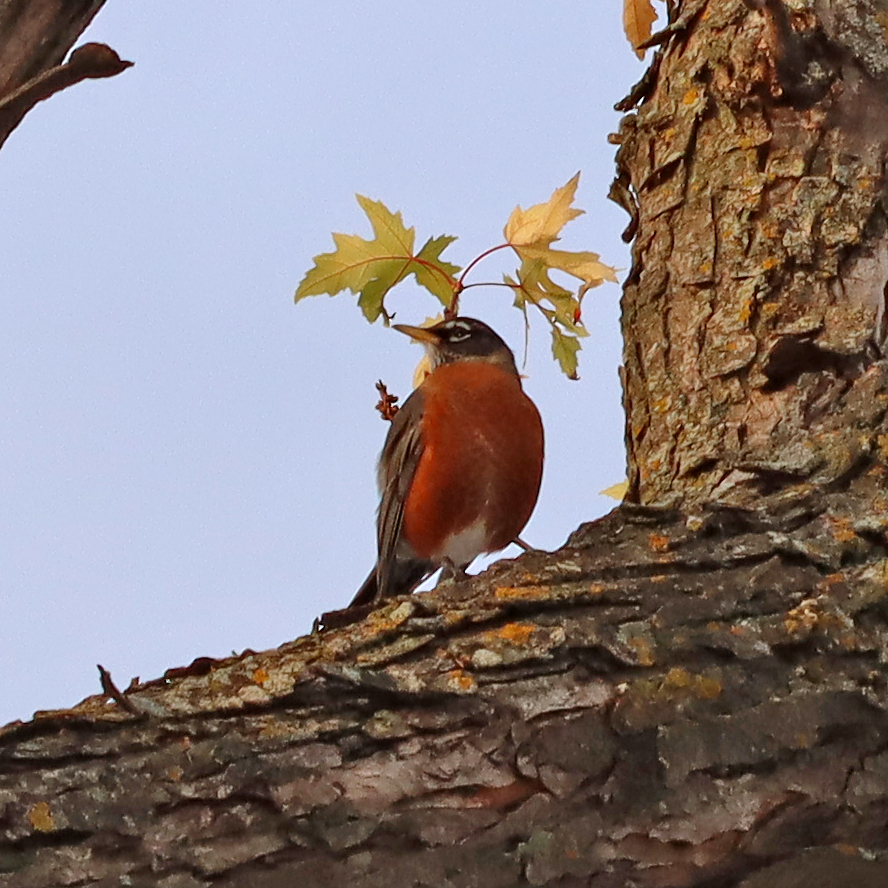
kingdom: Animalia
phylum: Chordata
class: Aves
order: Passeriformes
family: Turdidae
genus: Turdus
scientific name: Turdus migratorius
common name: American robin
